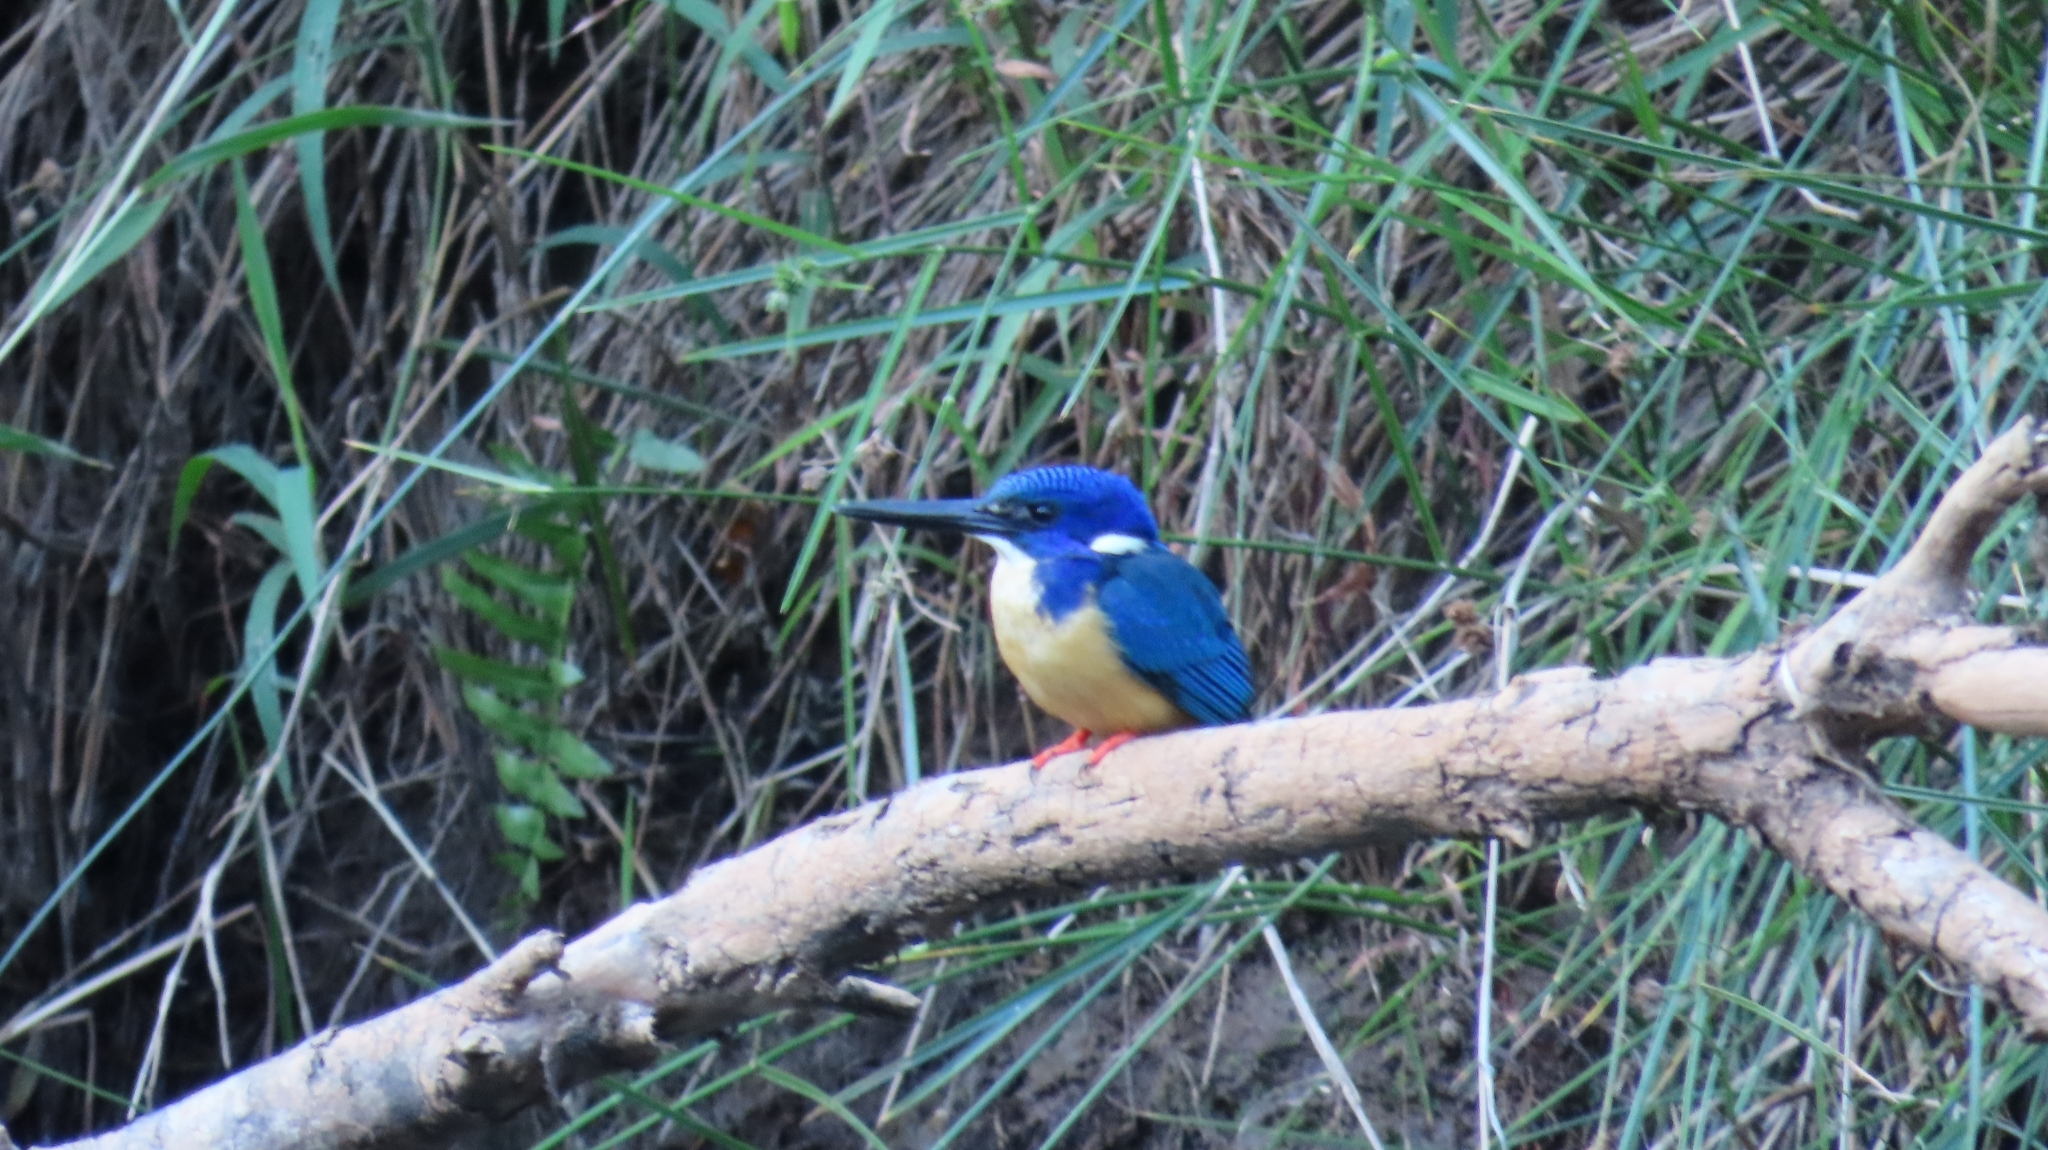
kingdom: Animalia
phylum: Chordata
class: Aves
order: Coraciiformes
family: Alcedinidae
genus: Alcedo
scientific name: Alcedo semitorquata
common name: Half-collared kingfisher
